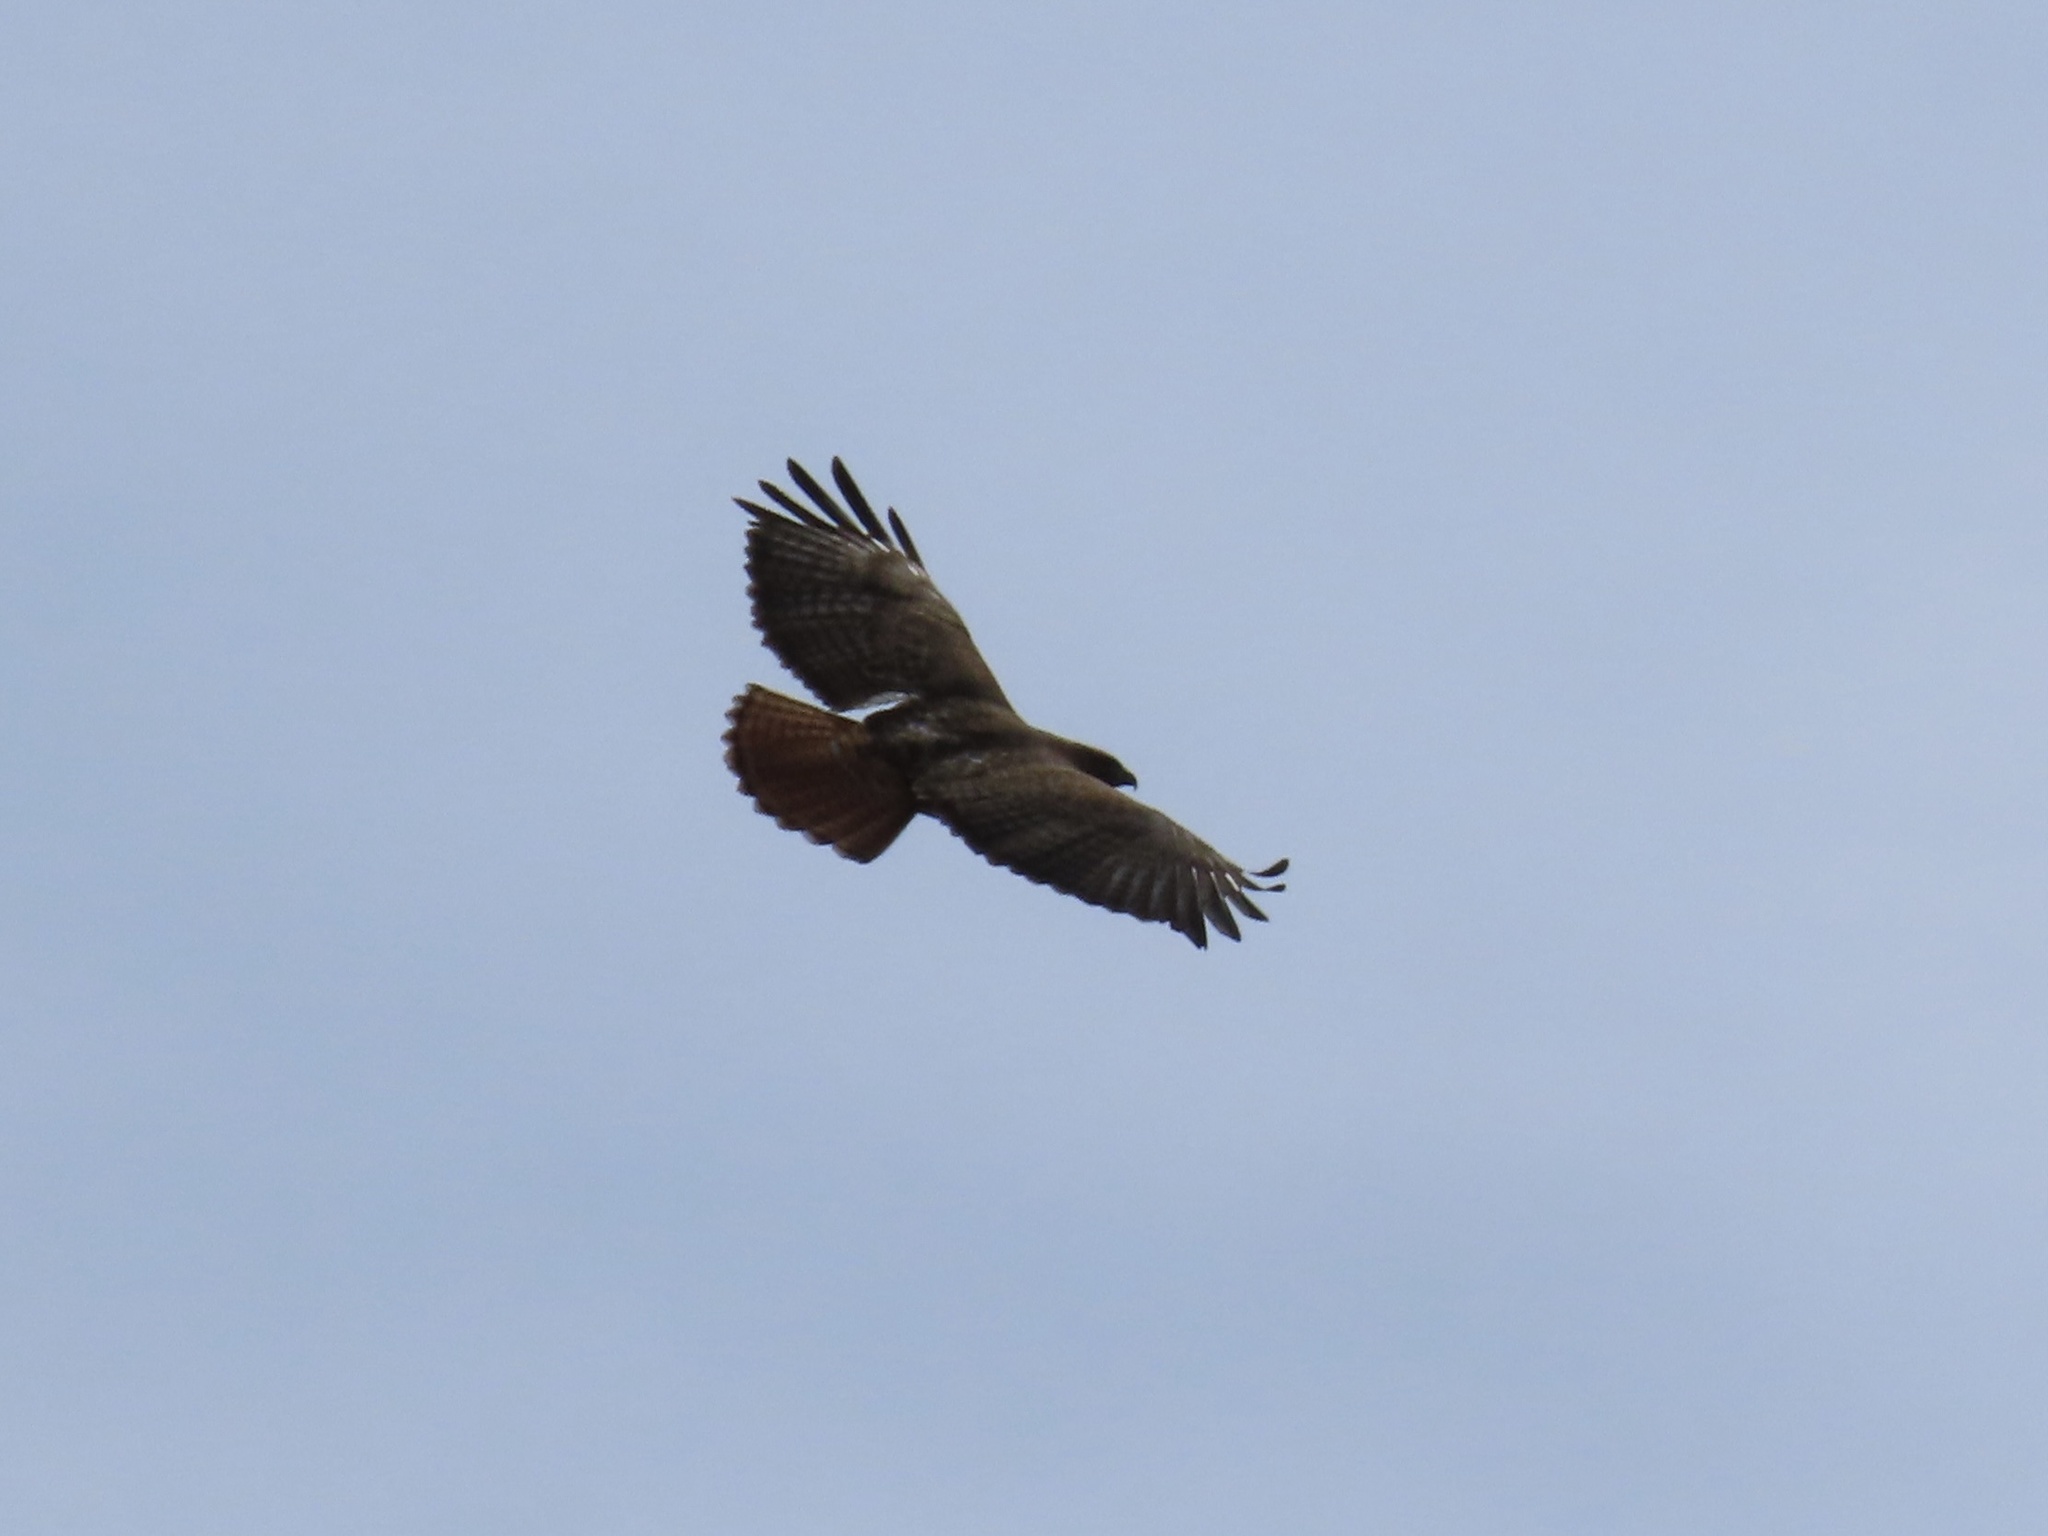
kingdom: Animalia
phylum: Chordata
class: Aves
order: Accipitriformes
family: Accipitridae
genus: Buteo
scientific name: Buteo jamaicensis
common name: Red-tailed hawk
